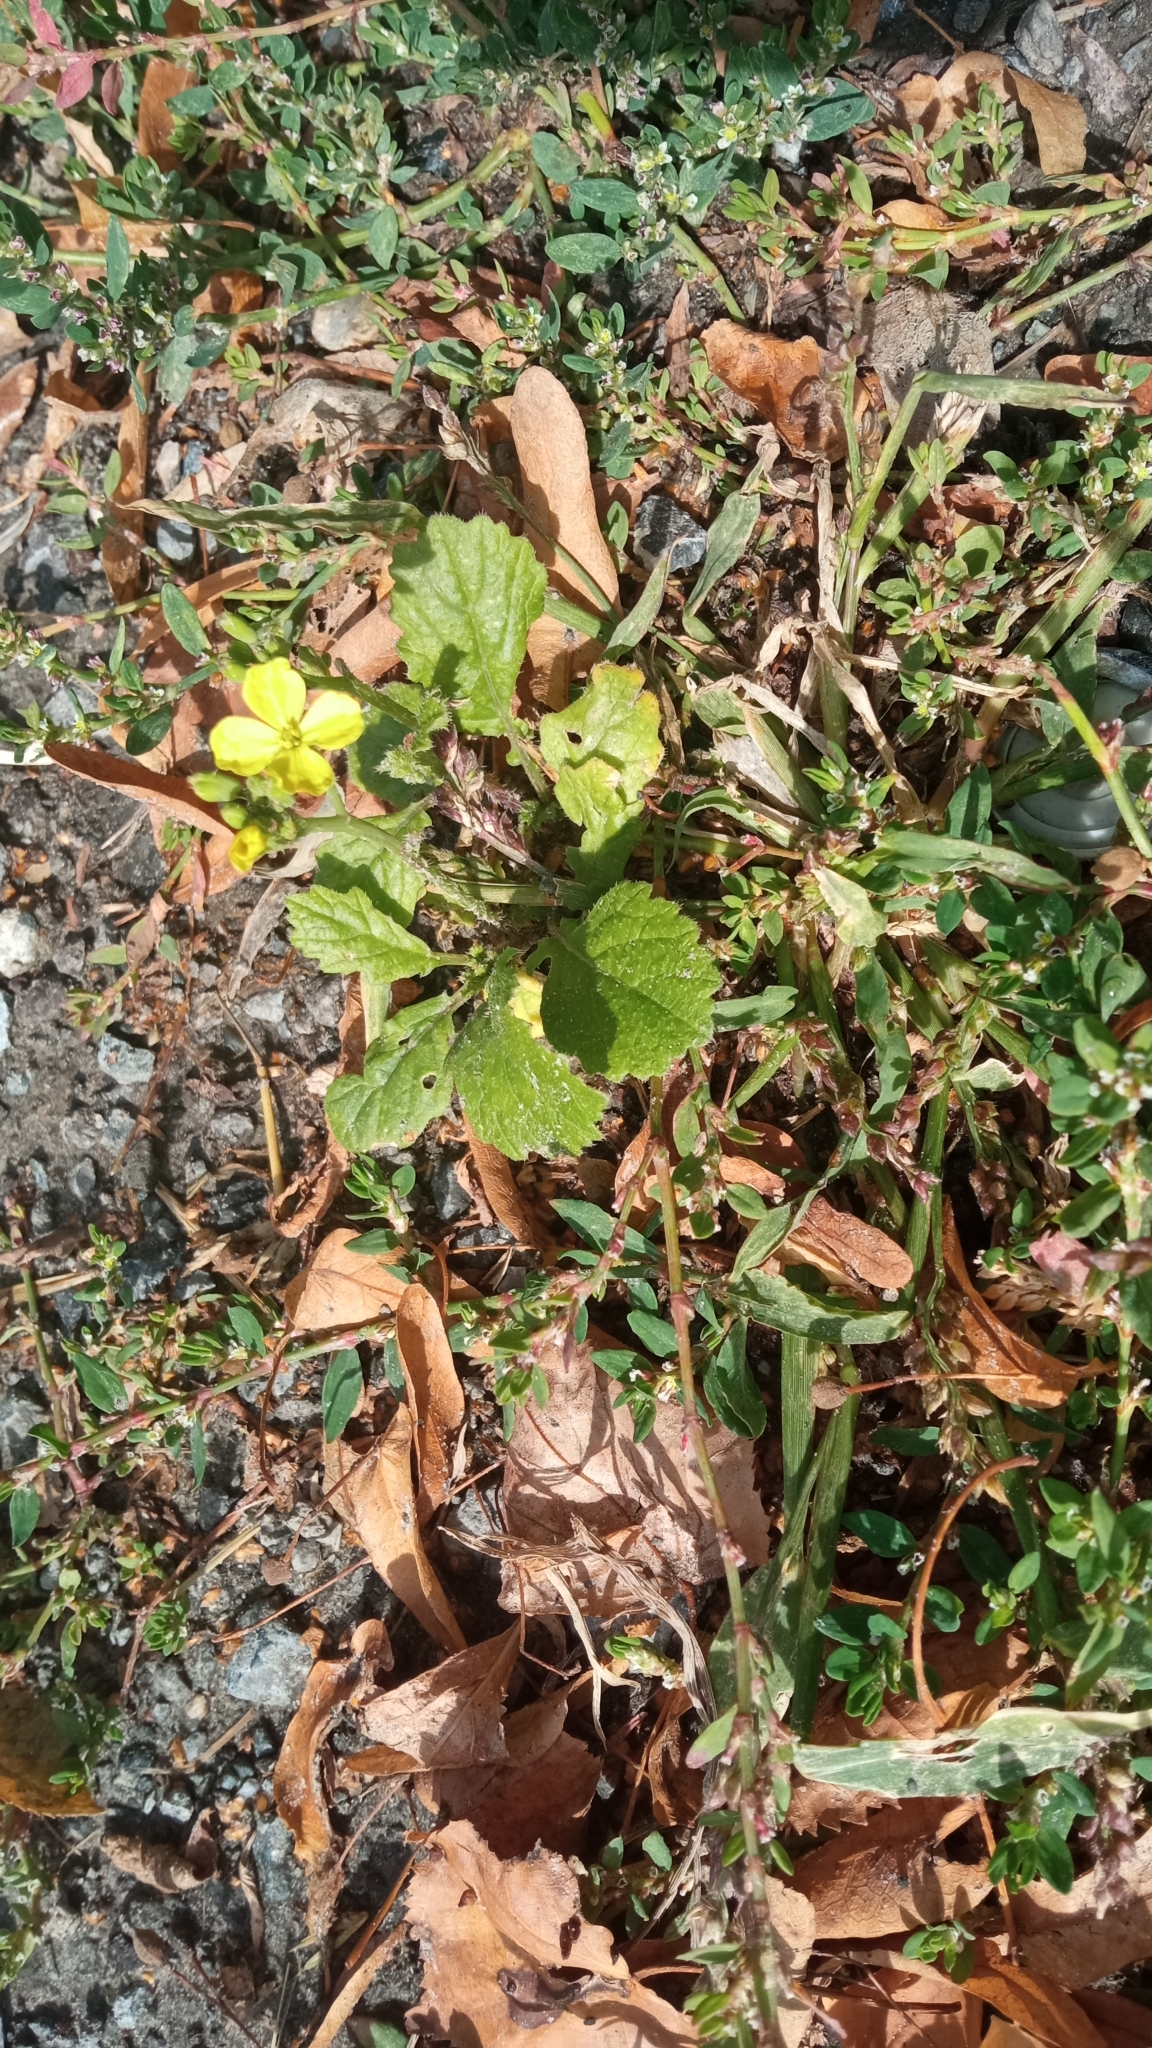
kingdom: Plantae
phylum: Tracheophyta
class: Magnoliopsida
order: Brassicales
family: Brassicaceae
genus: Raphanus
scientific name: Raphanus raphanistrum
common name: Wild radish
